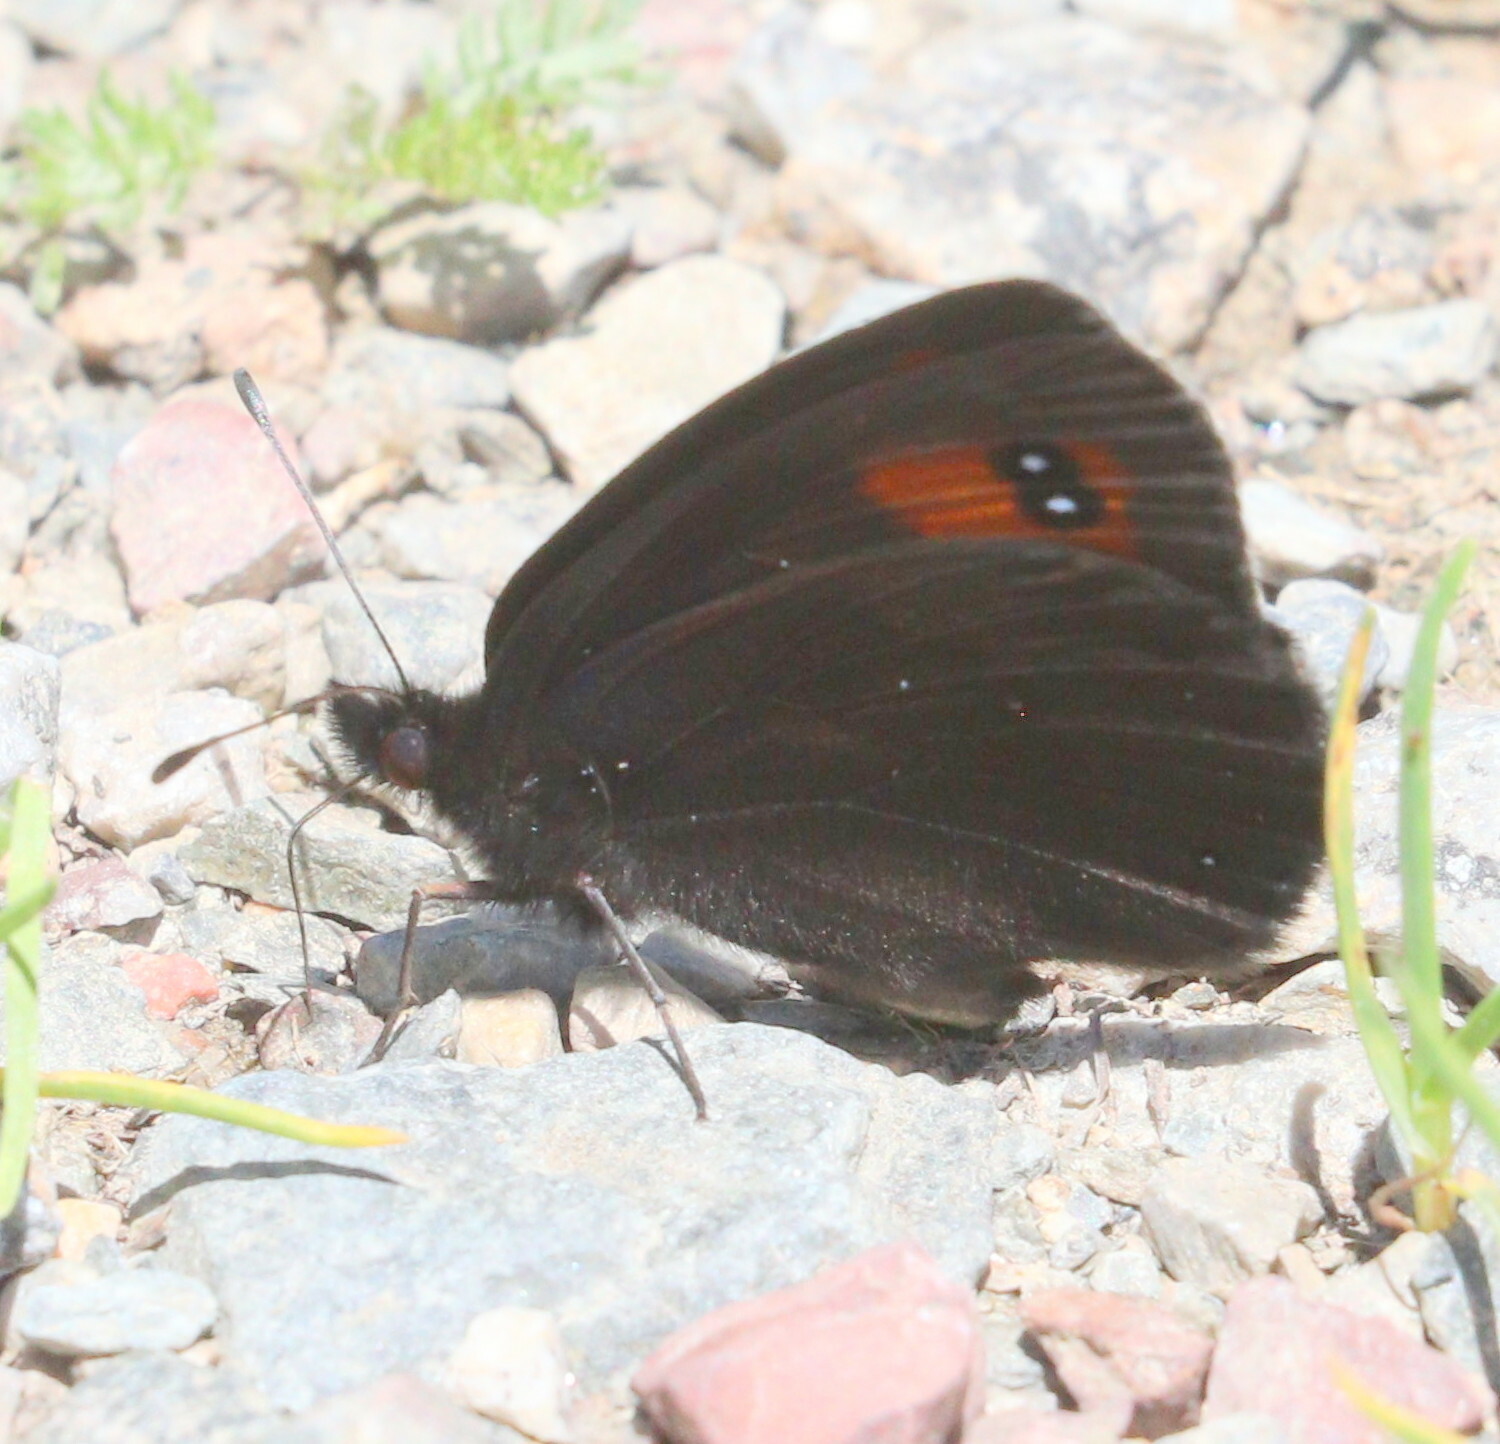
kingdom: Animalia
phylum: Arthropoda
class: Insecta
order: Lepidoptera
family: Nymphalidae
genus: Erebia
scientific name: Erebia meolans
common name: Piedmont ringlet
